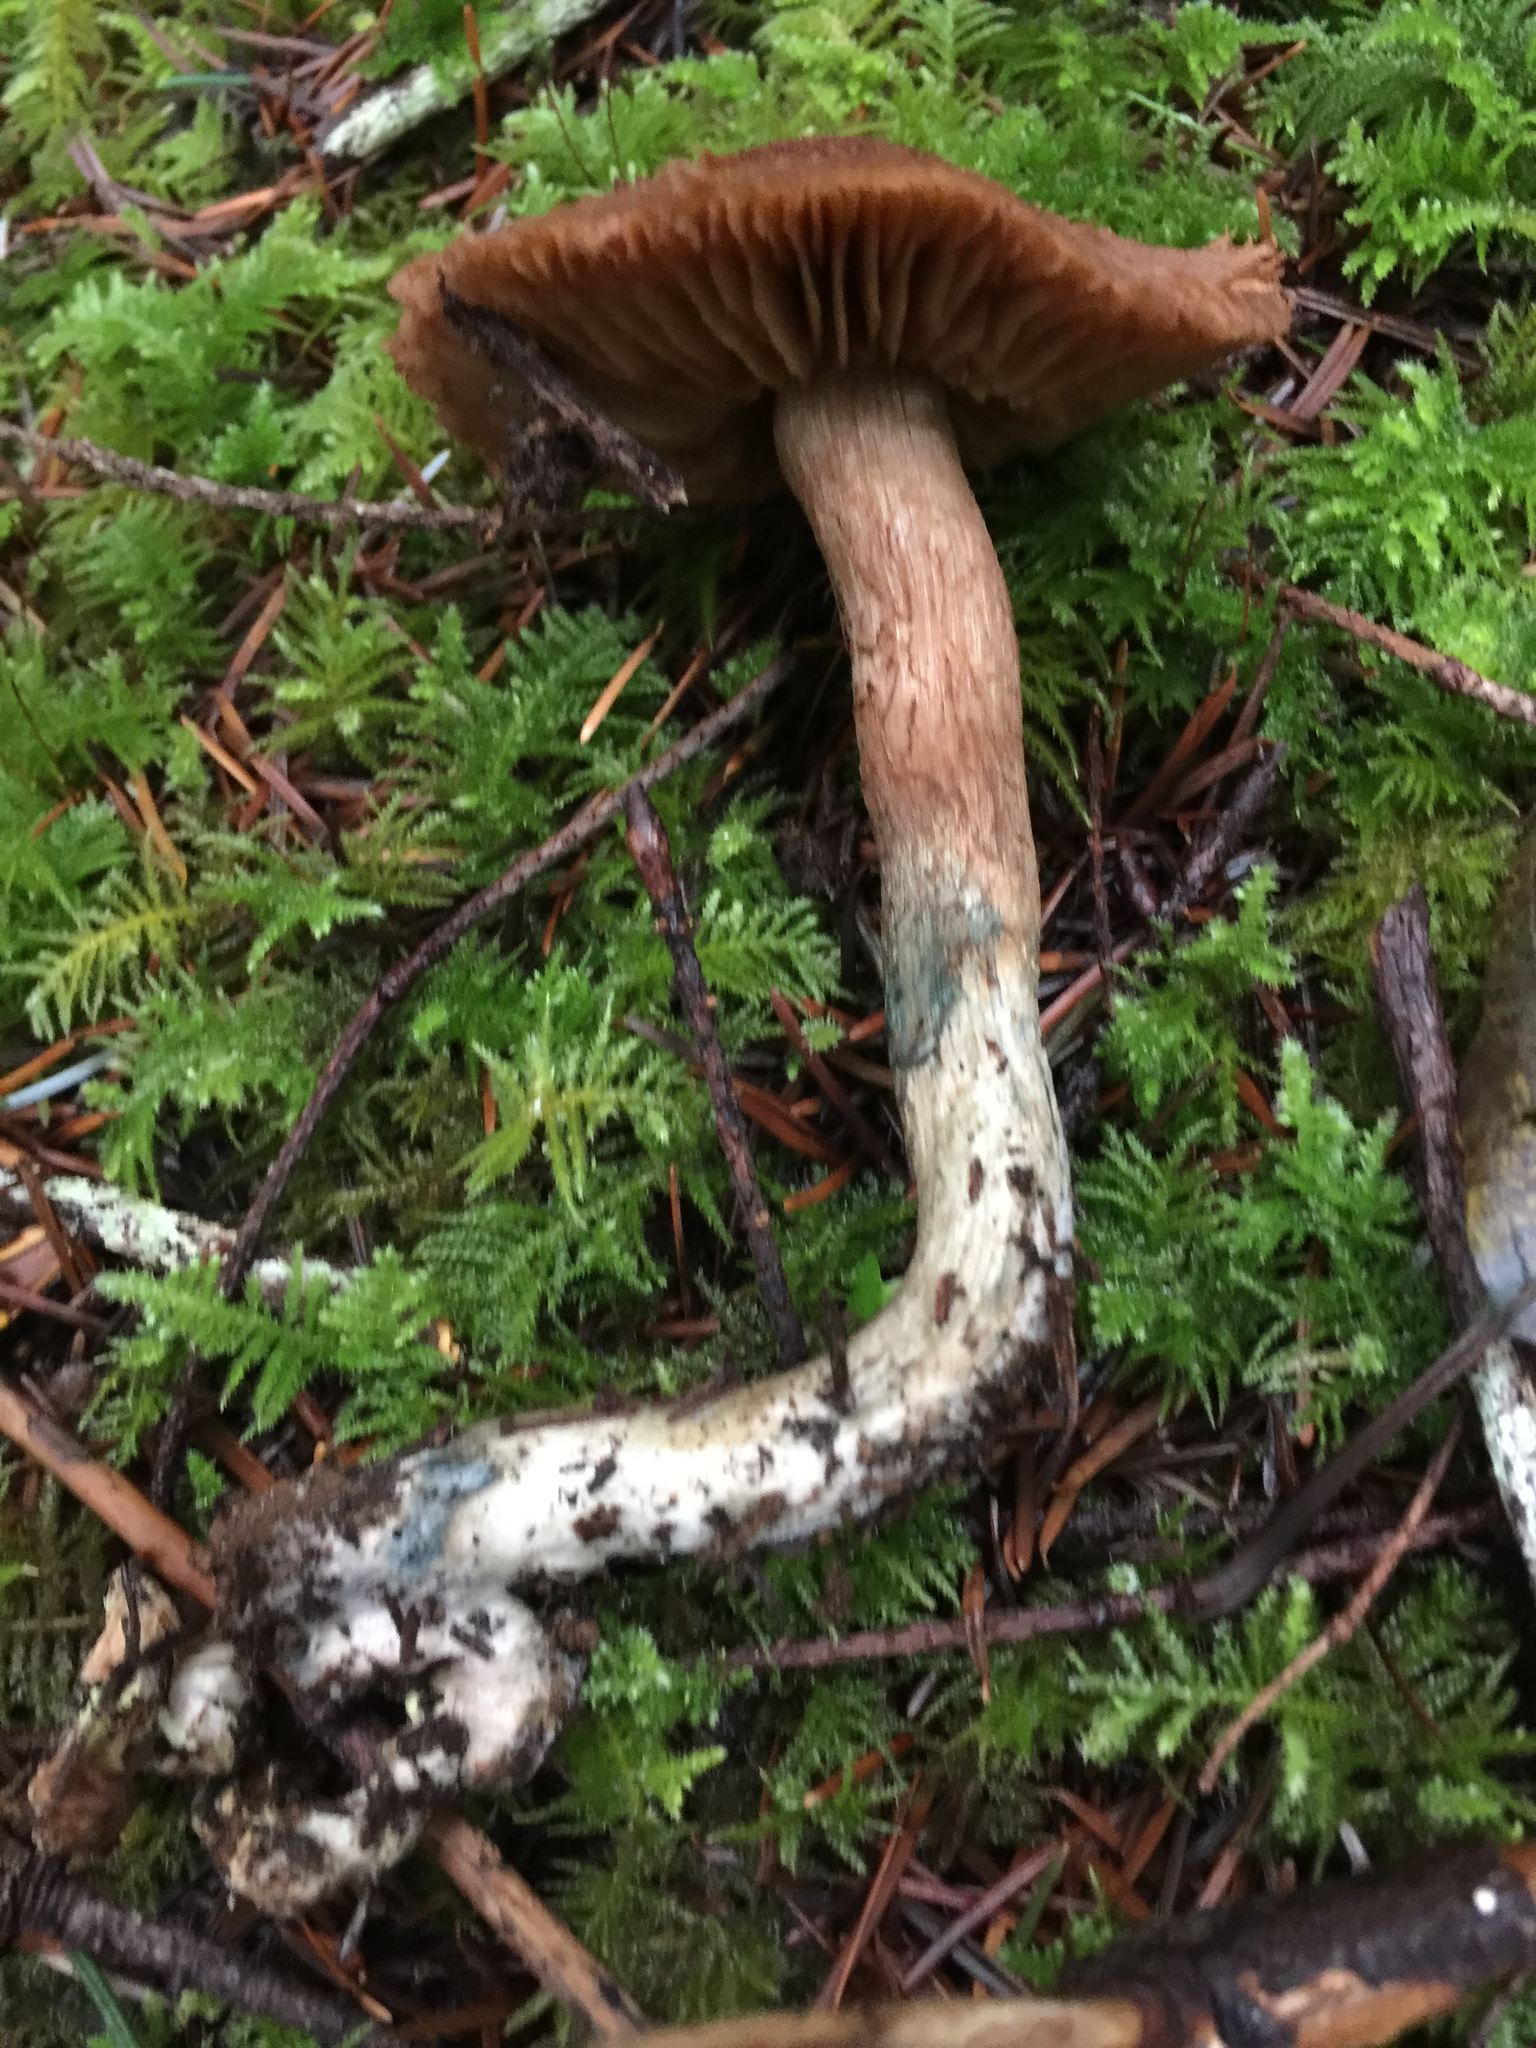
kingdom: Fungi
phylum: Basidiomycota
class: Agaricomycetes
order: Agaricales
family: Inocybaceae
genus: Inosperma
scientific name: Inosperma calamistratum
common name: Greenfoot fibrecap
